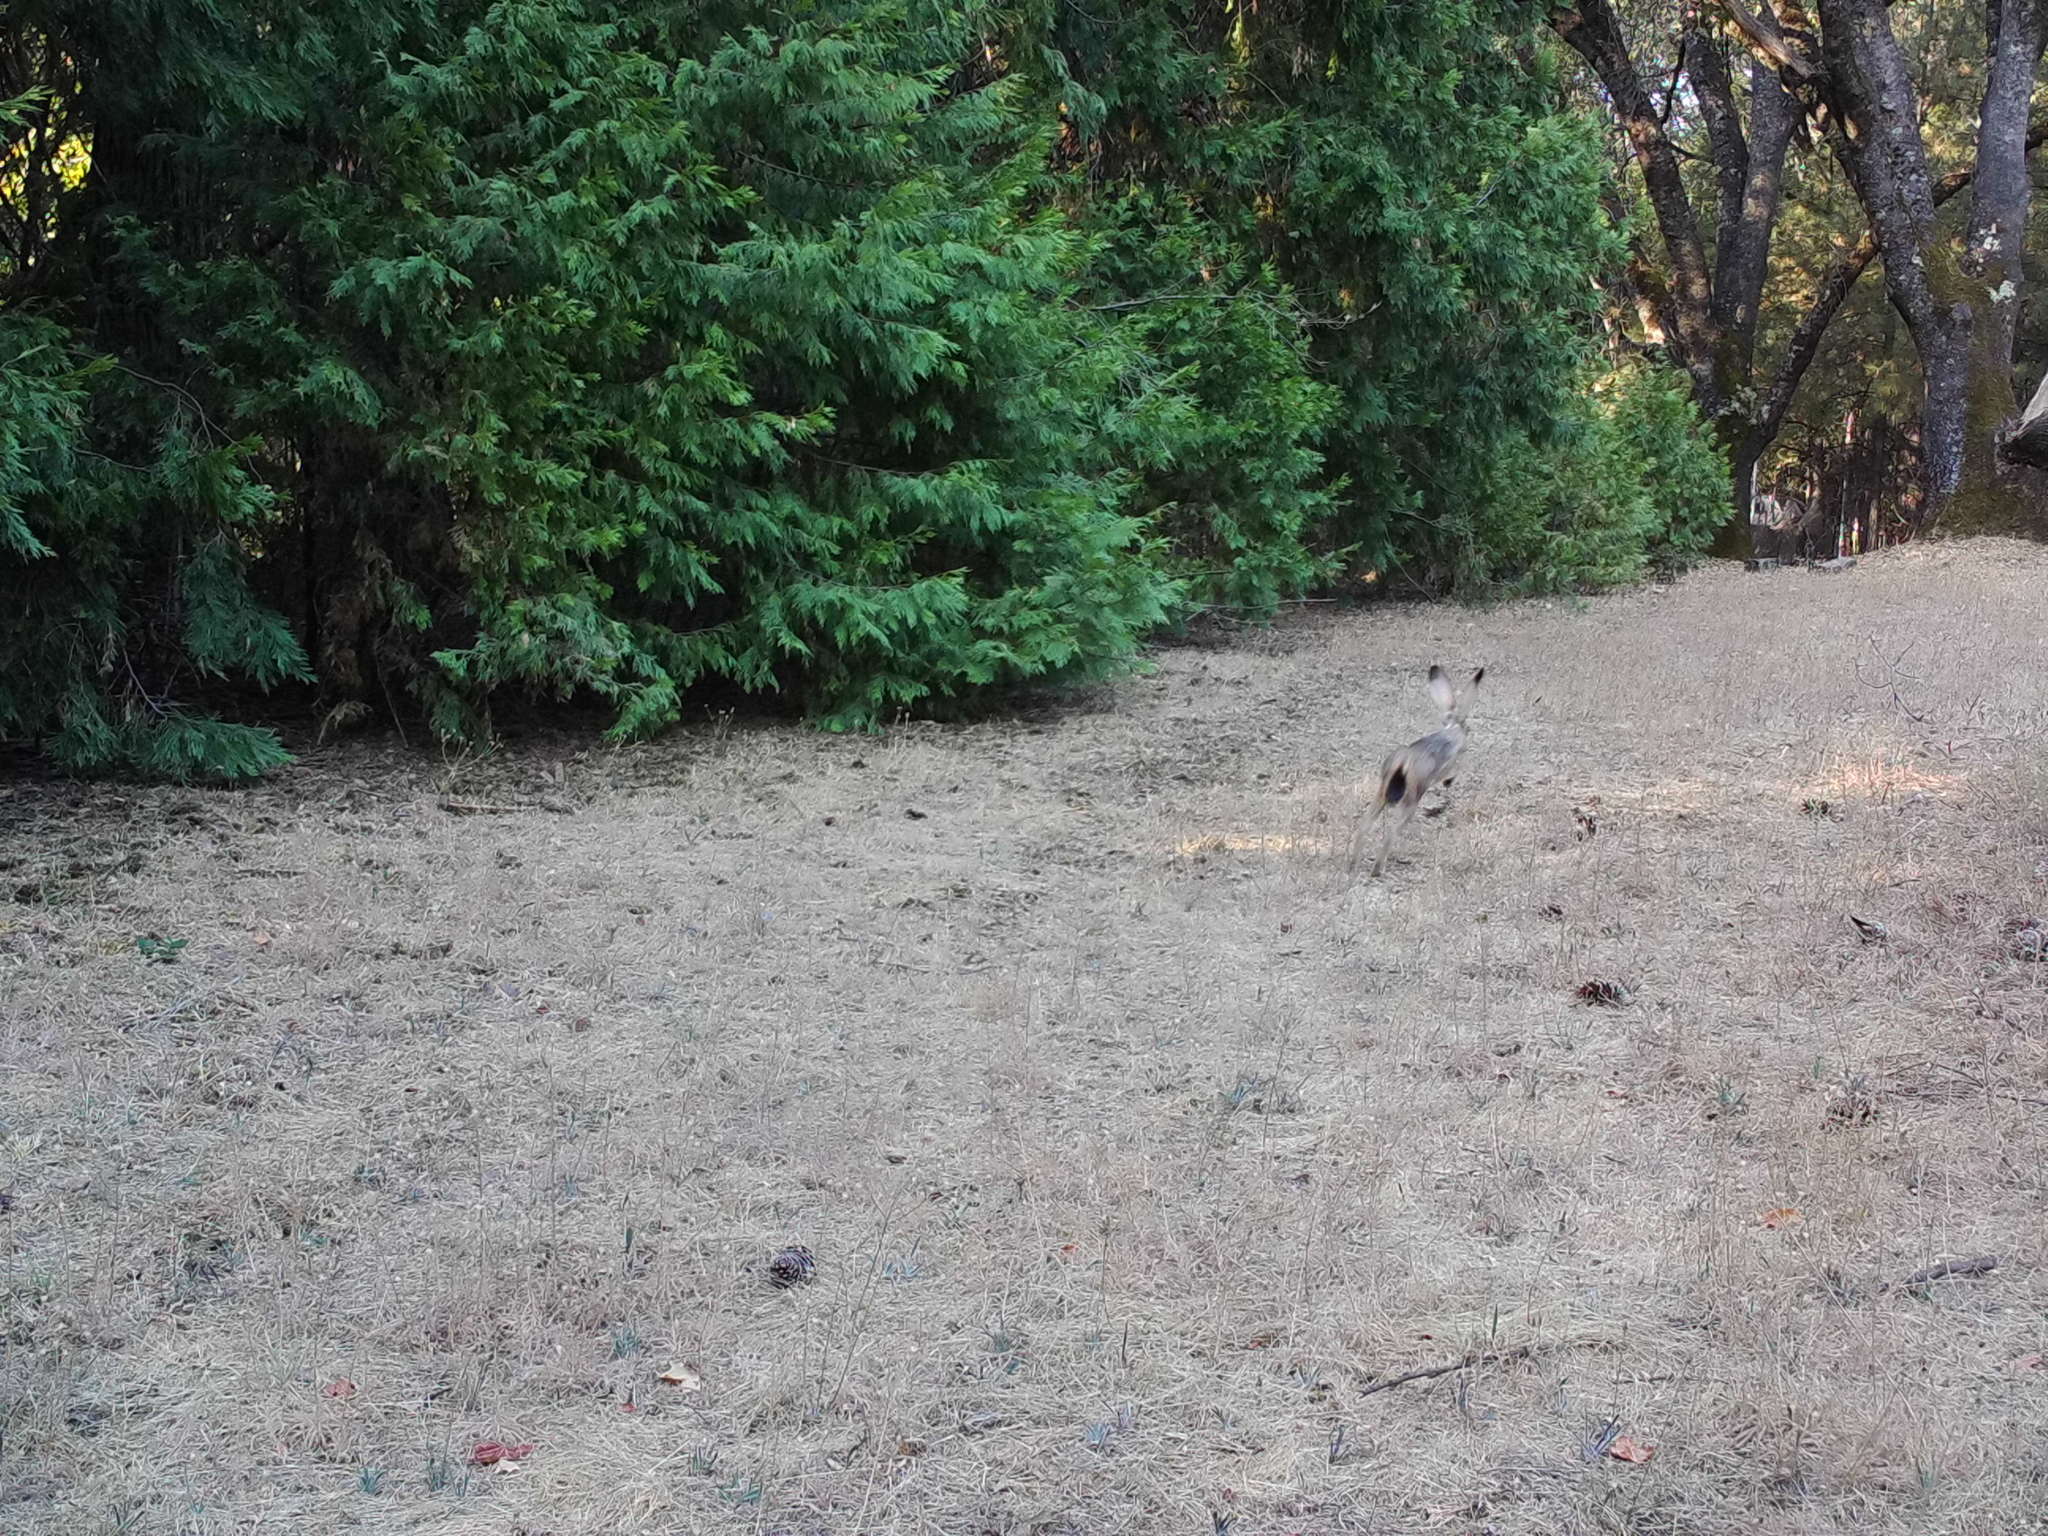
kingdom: Animalia
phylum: Chordata
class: Mammalia
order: Lagomorpha
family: Leporidae
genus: Lepus
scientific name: Lepus californicus
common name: Black-tailed jackrabbit
